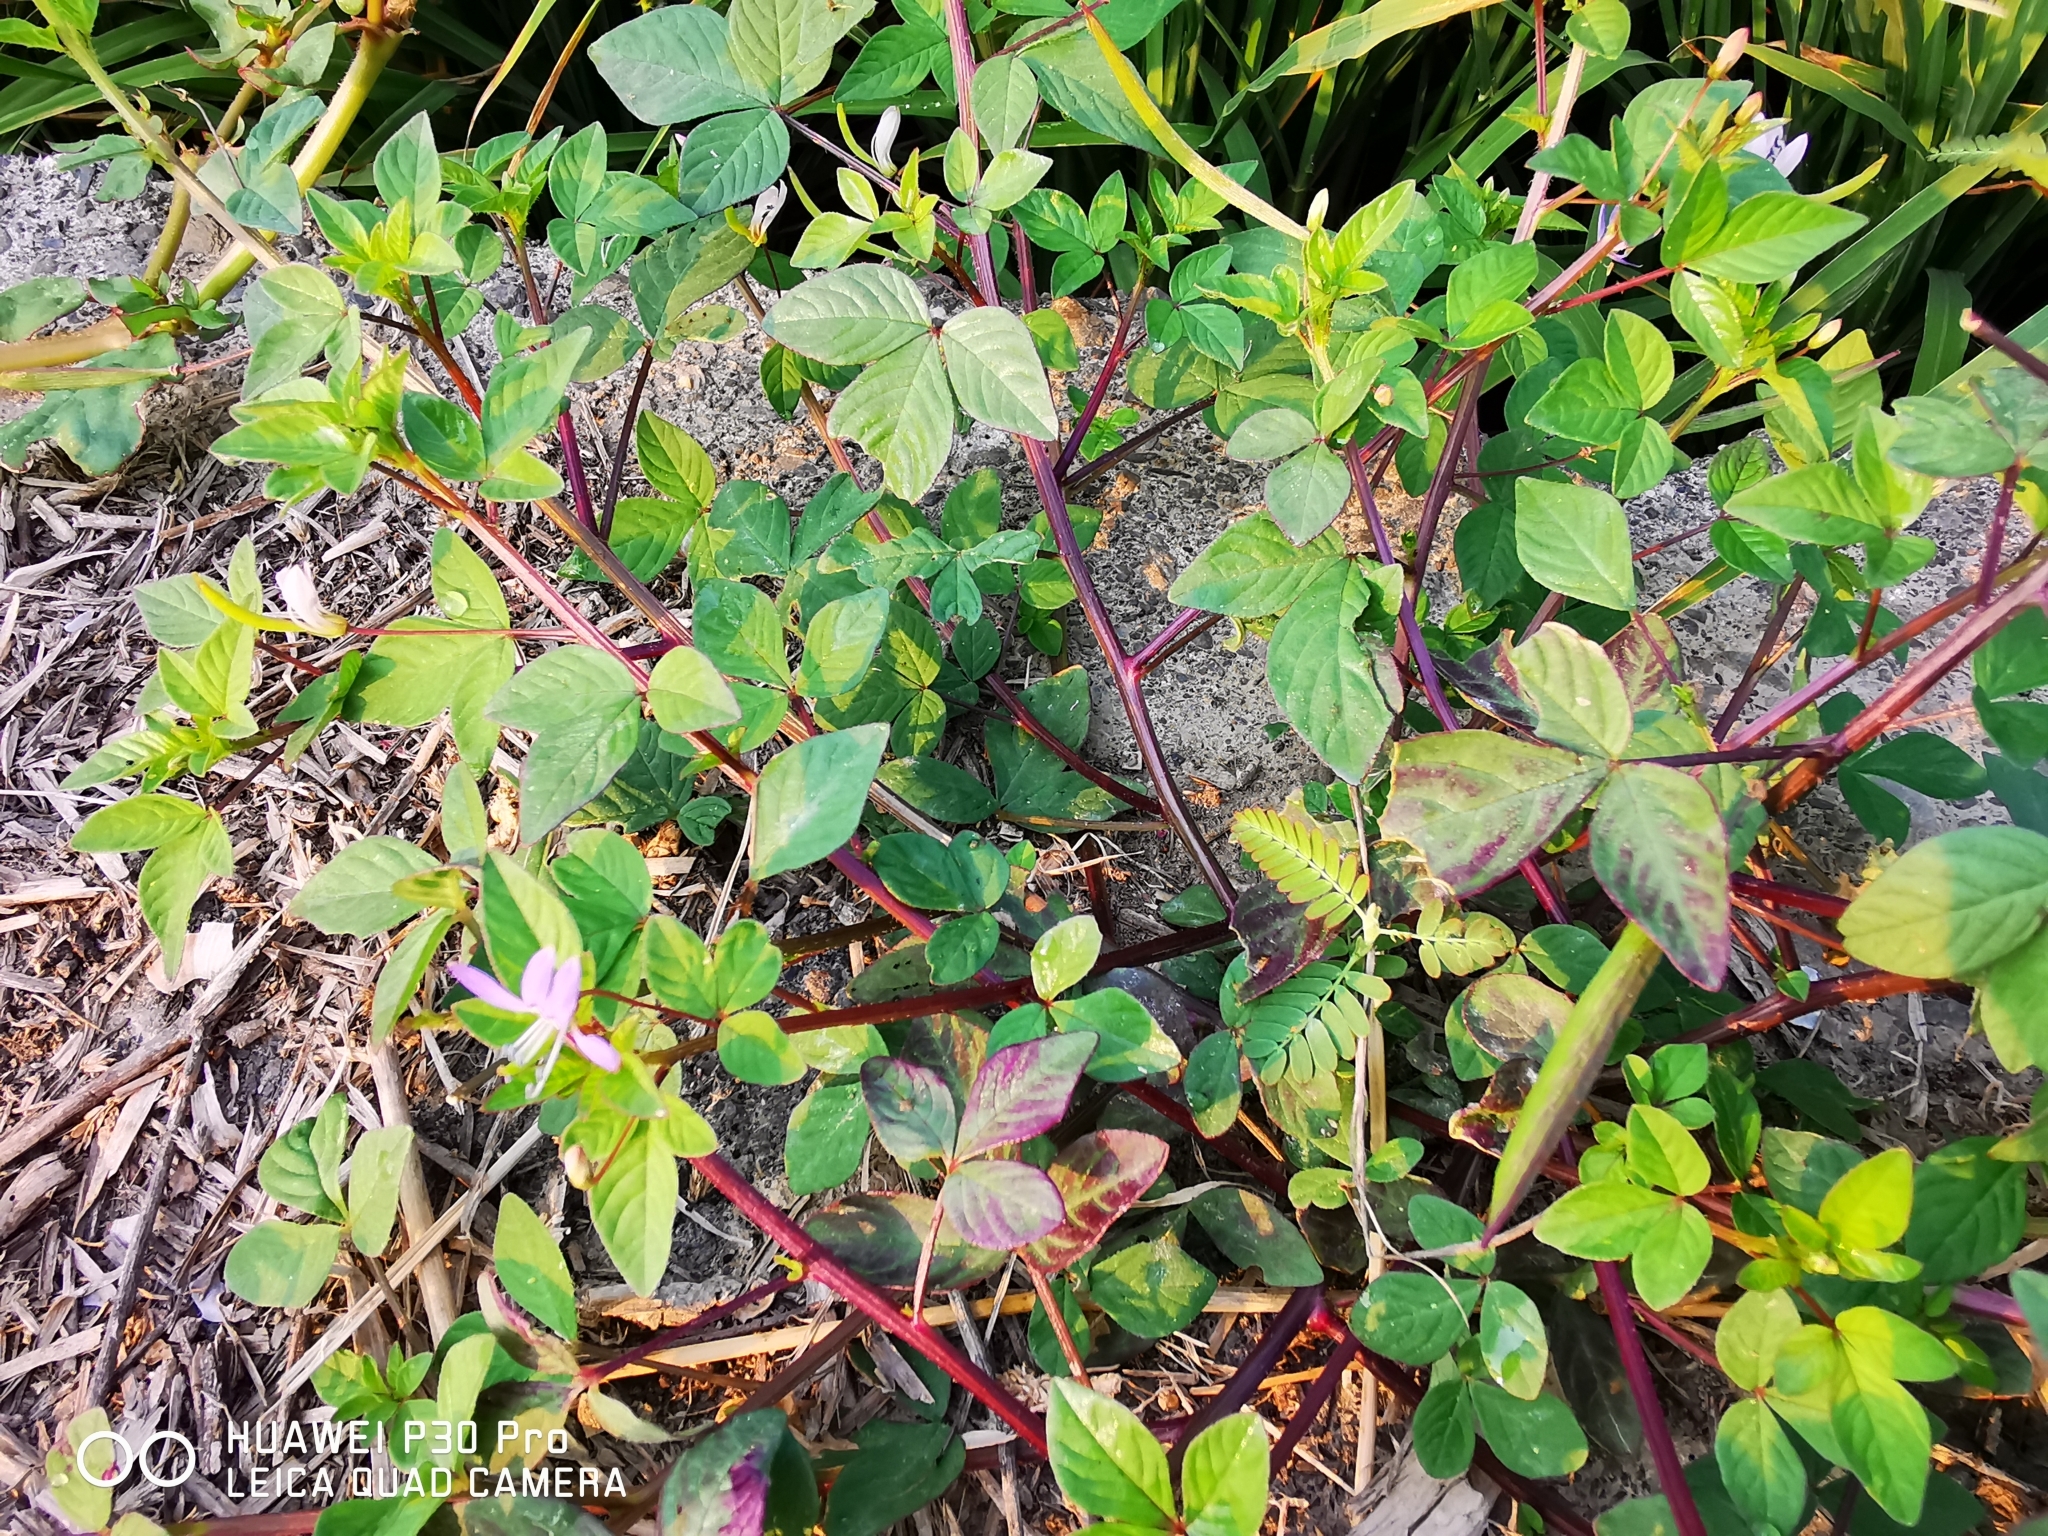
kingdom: Plantae
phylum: Tracheophyta
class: Magnoliopsida
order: Brassicales
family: Cleomaceae
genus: Sieruela
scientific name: Sieruela rutidosperma
